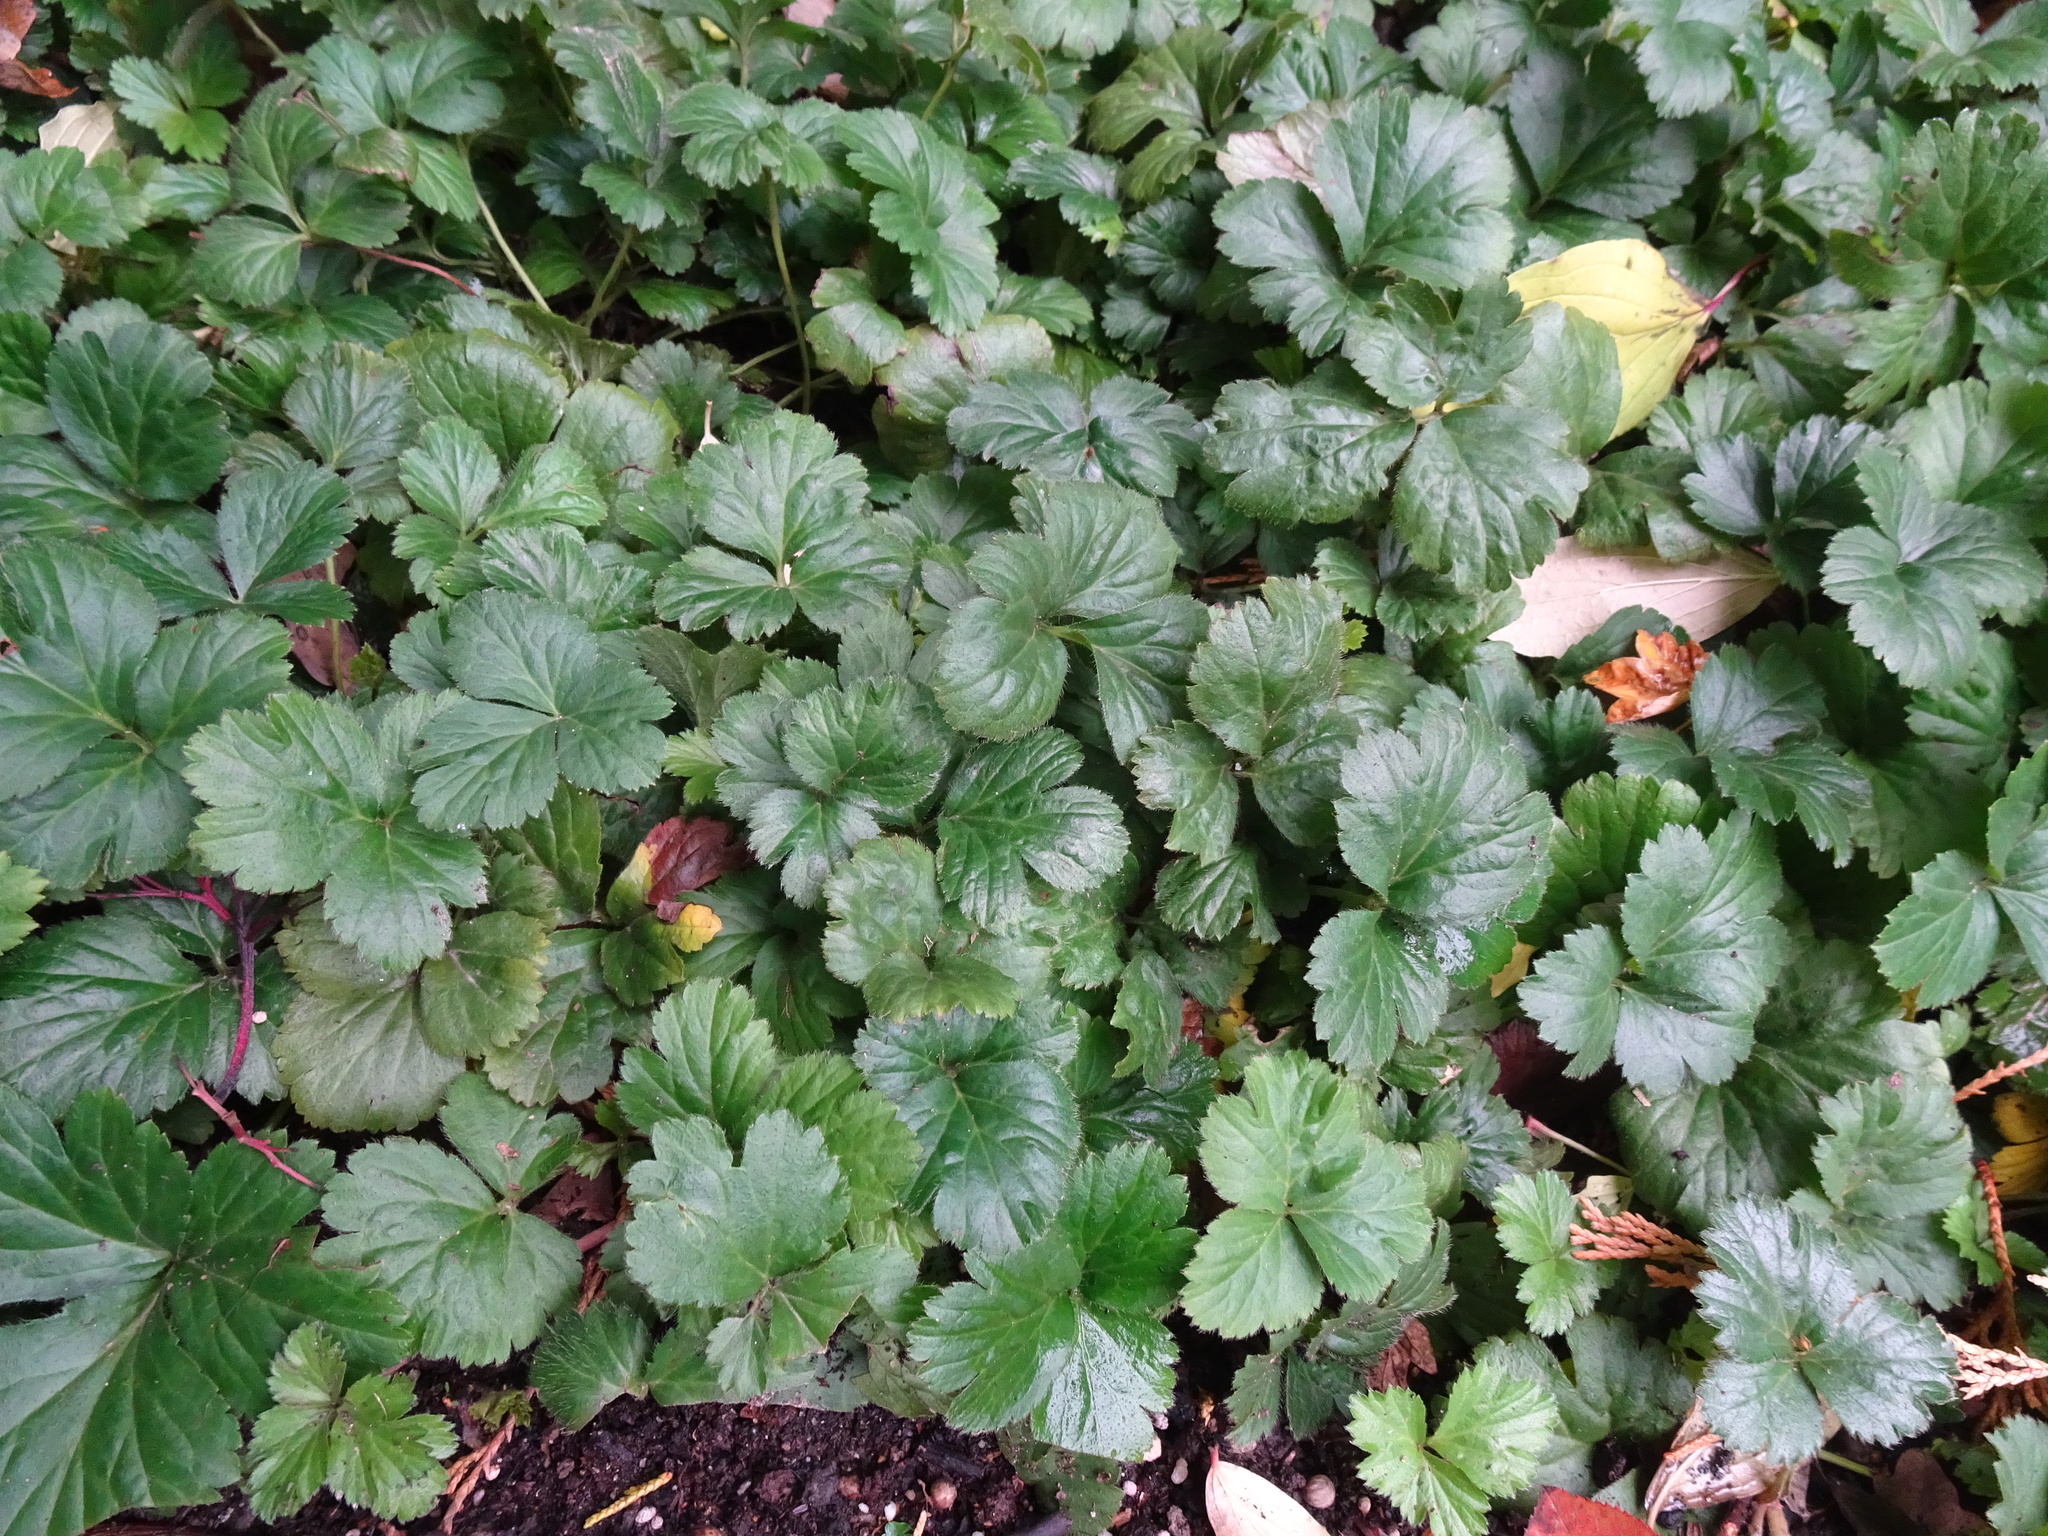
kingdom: Plantae
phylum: Tracheophyta
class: Magnoliopsida
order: Rosales
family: Rosaceae
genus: Geum
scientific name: Geum urbanum
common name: Wood avens
